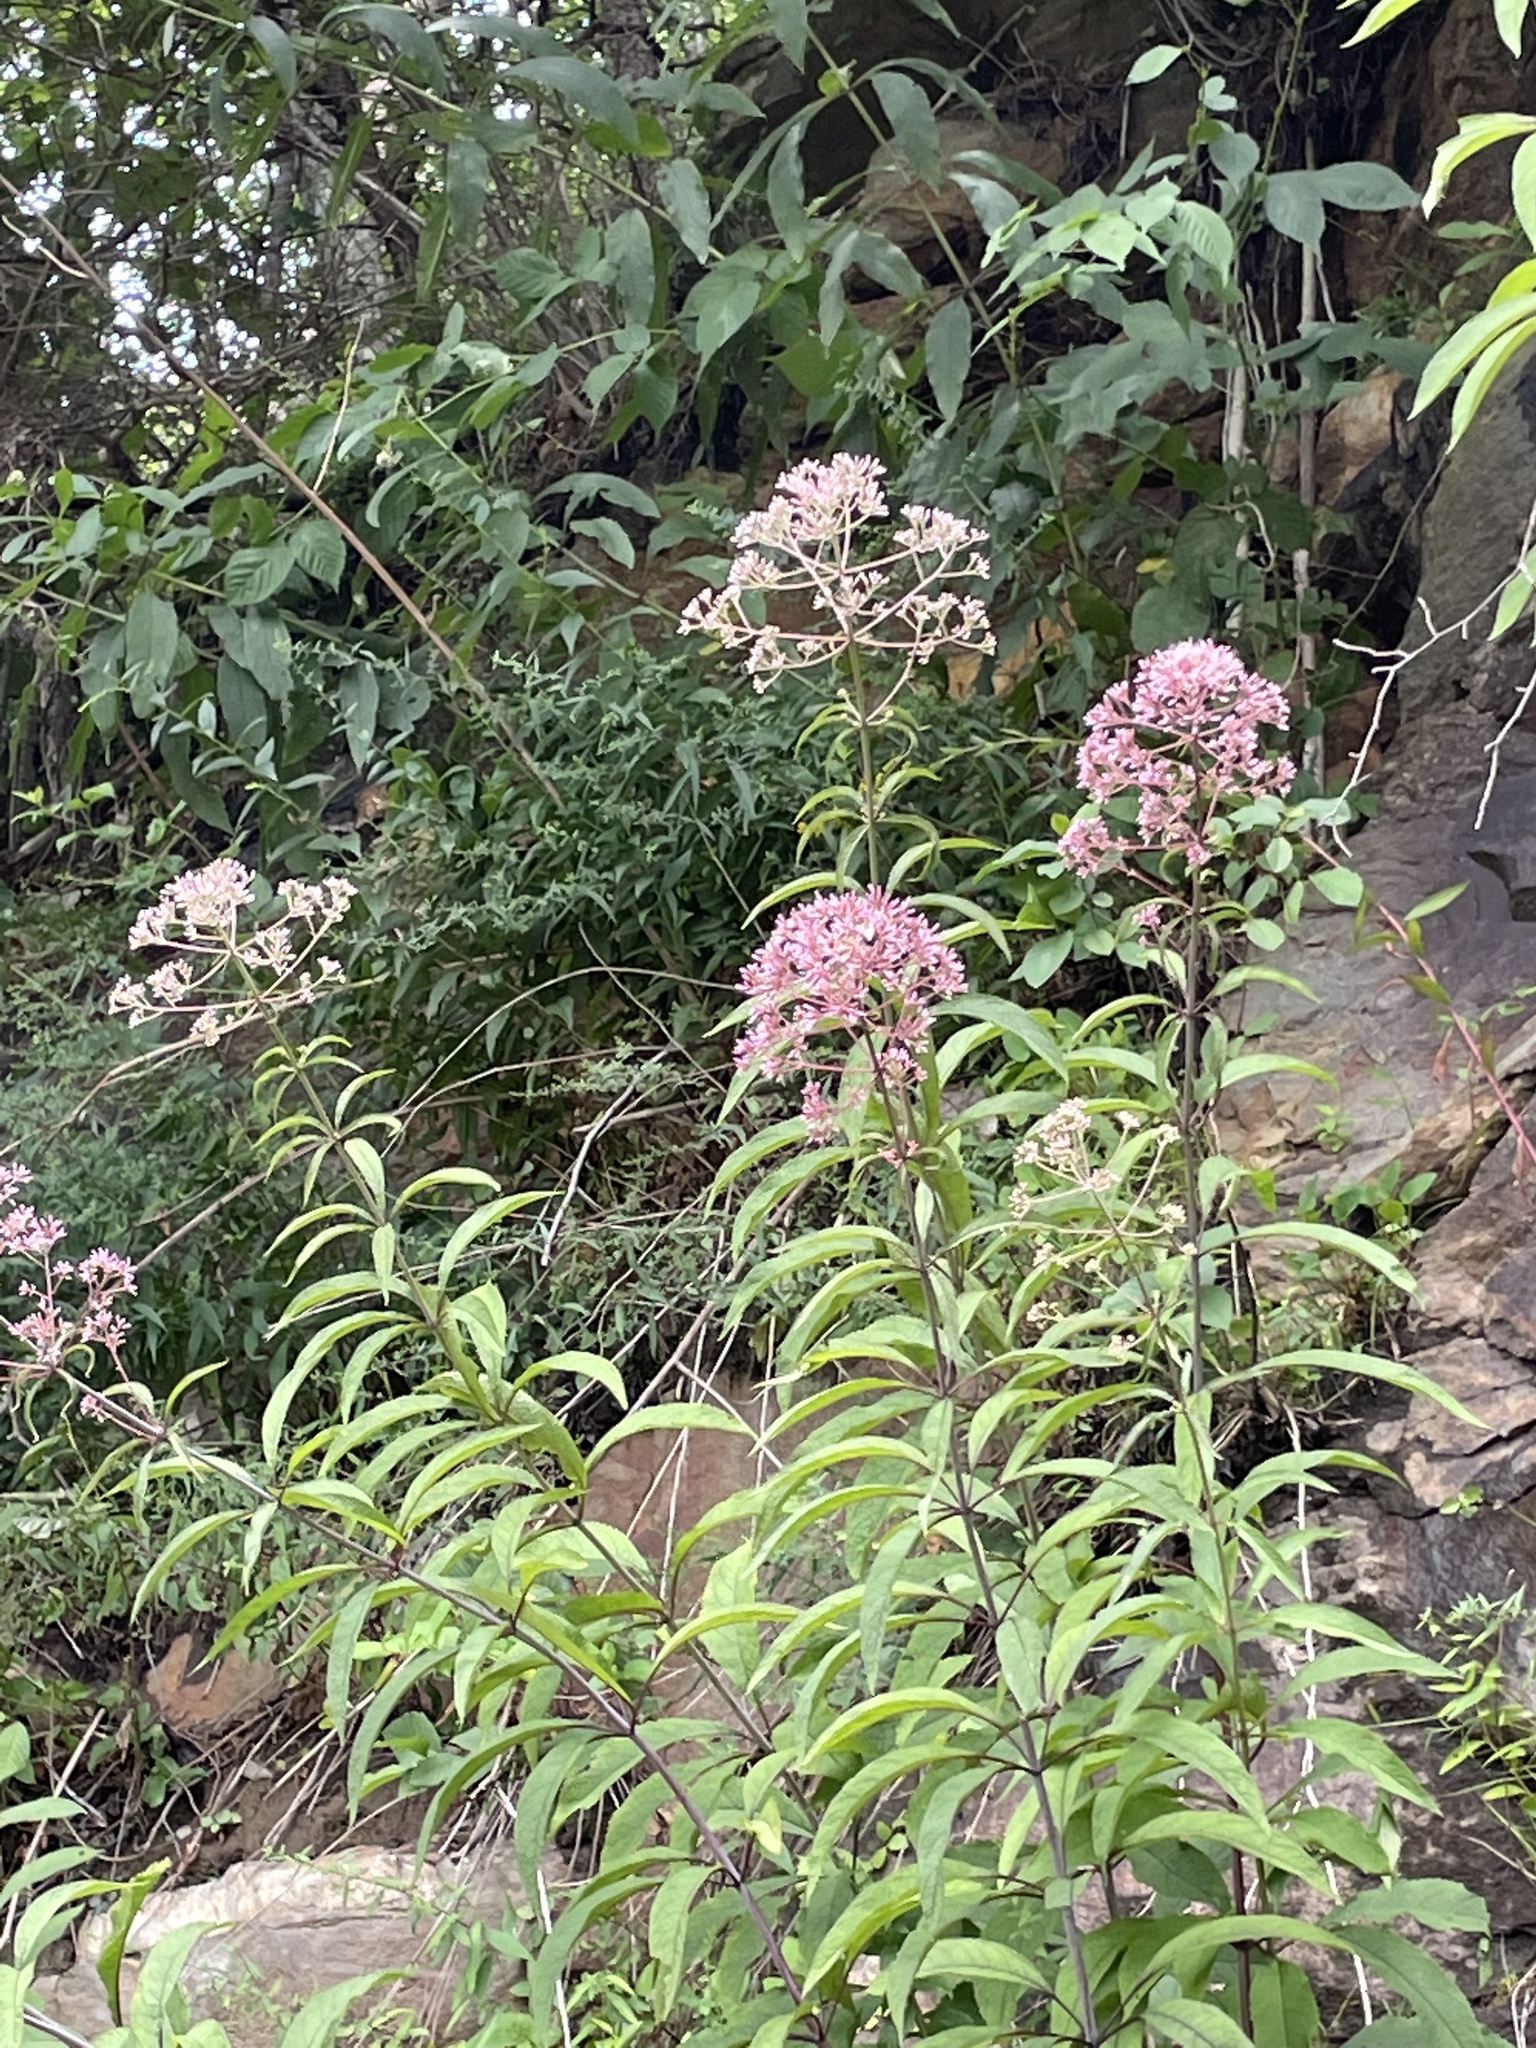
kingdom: Plantae
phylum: Tracheophyta
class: Magnoliopsida
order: Asterales
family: Asteraceae
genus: Eutrochium
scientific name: Eutrochium fistulosum
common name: Trumpetweed
